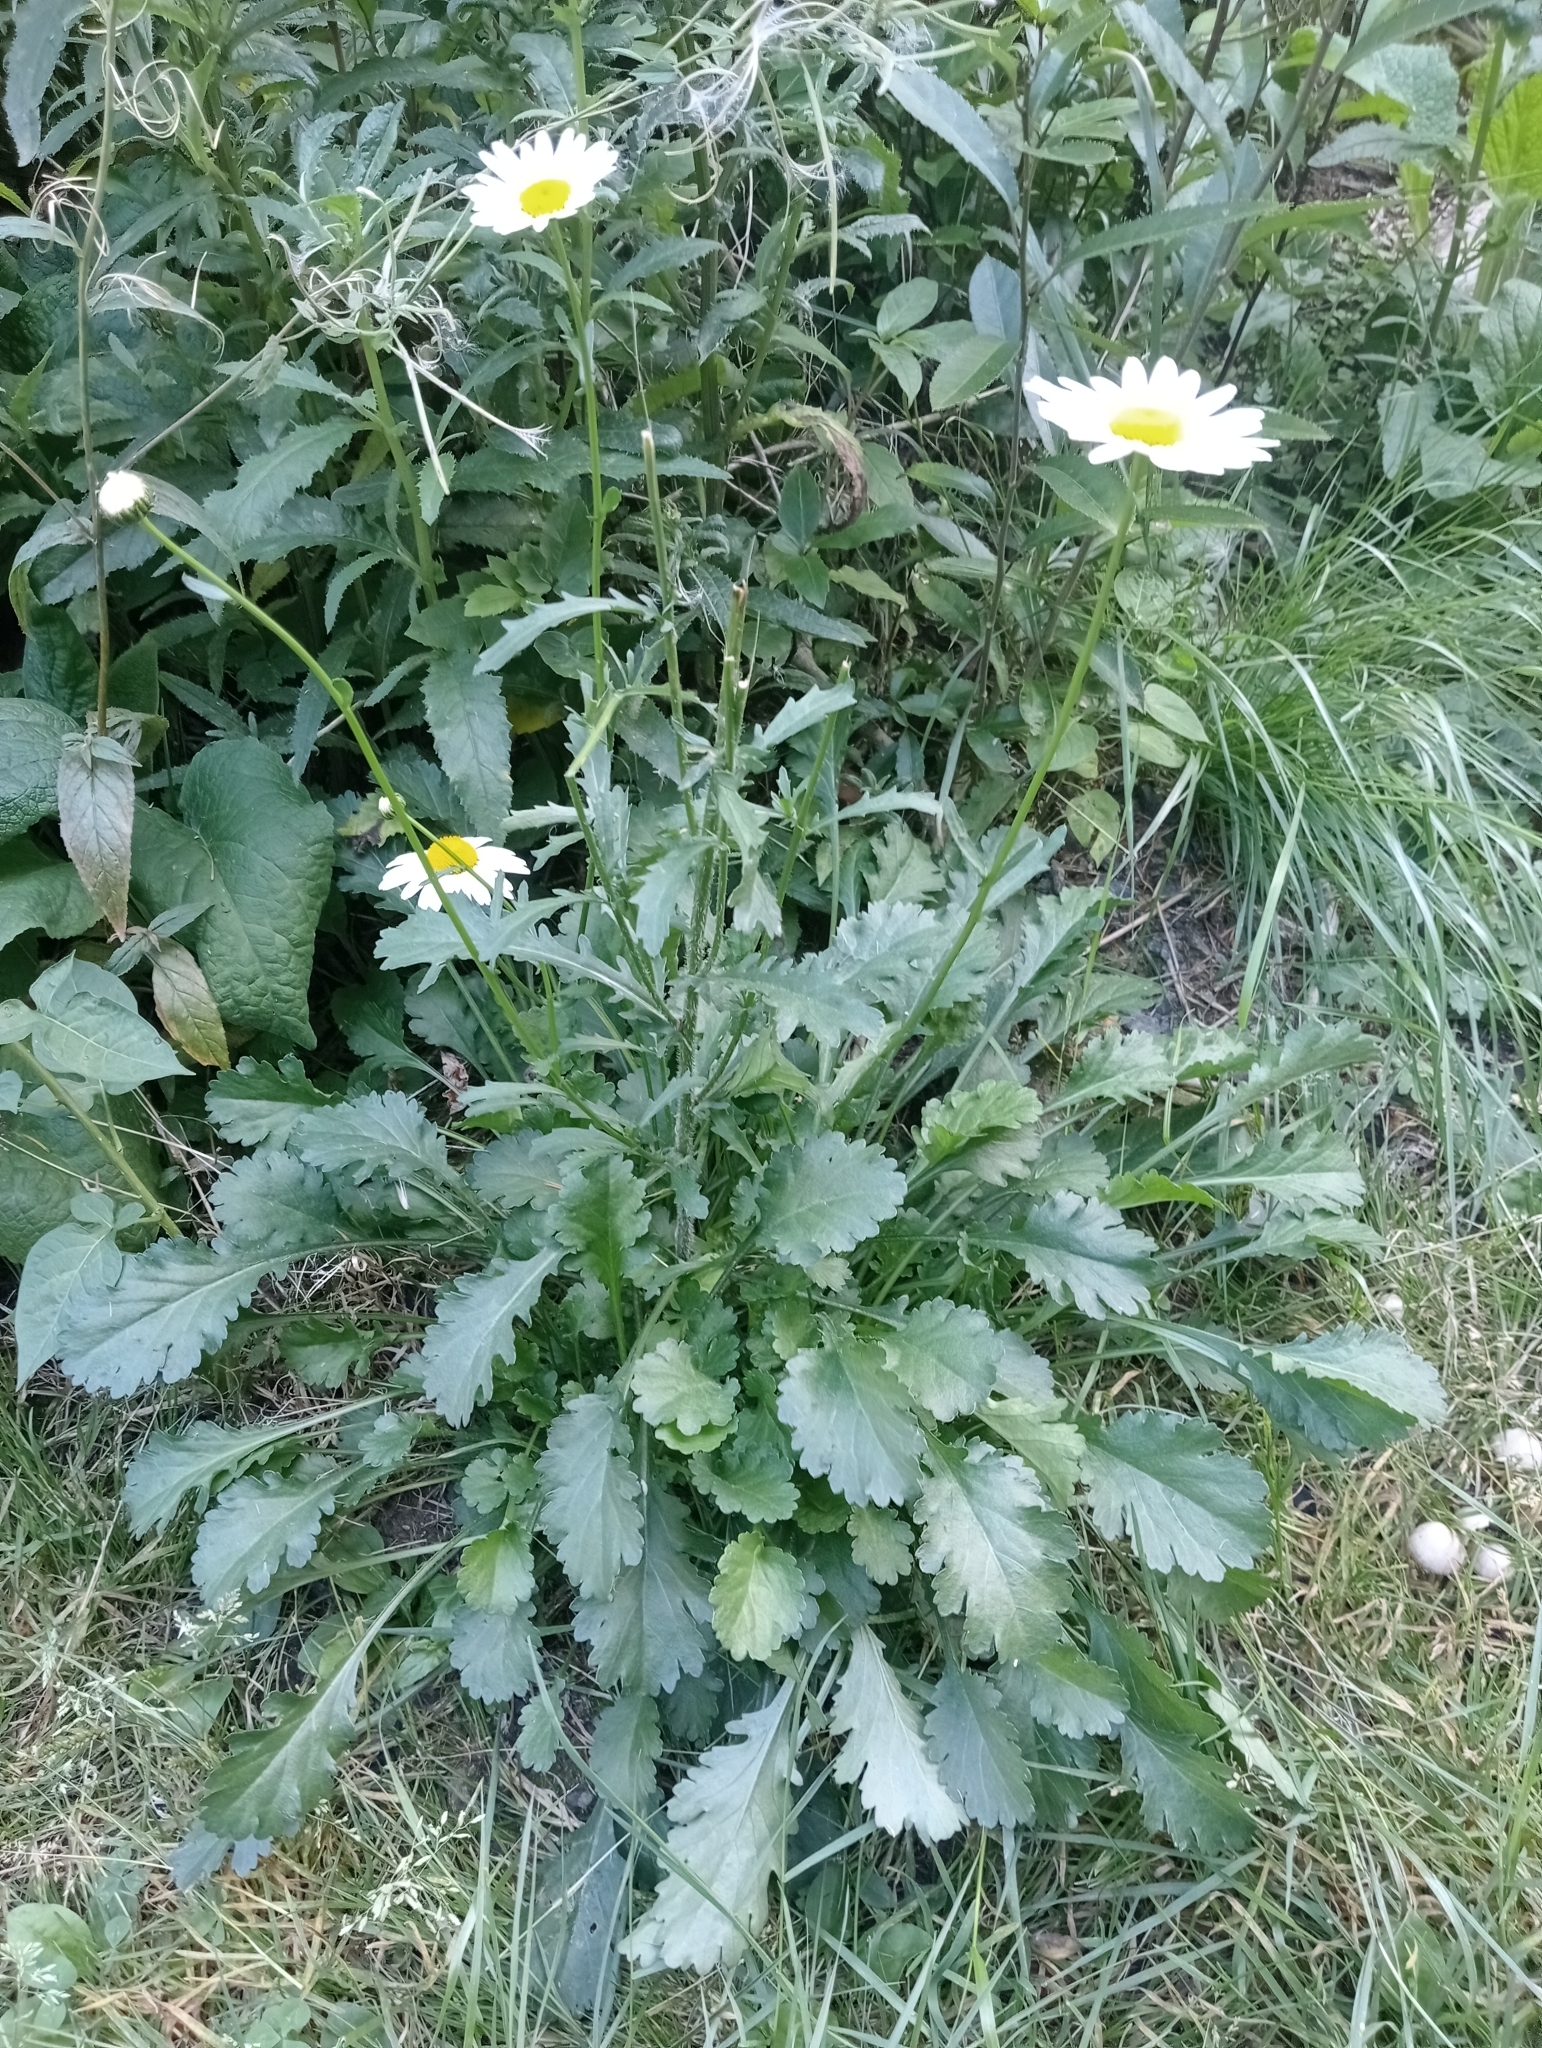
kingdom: Plantae
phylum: Tracheophyta
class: Magnoliopsida
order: Asterales
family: Asteraceae
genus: Leucanthemum
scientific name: Leucanthemum vulgare
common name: Oxeye daisy
